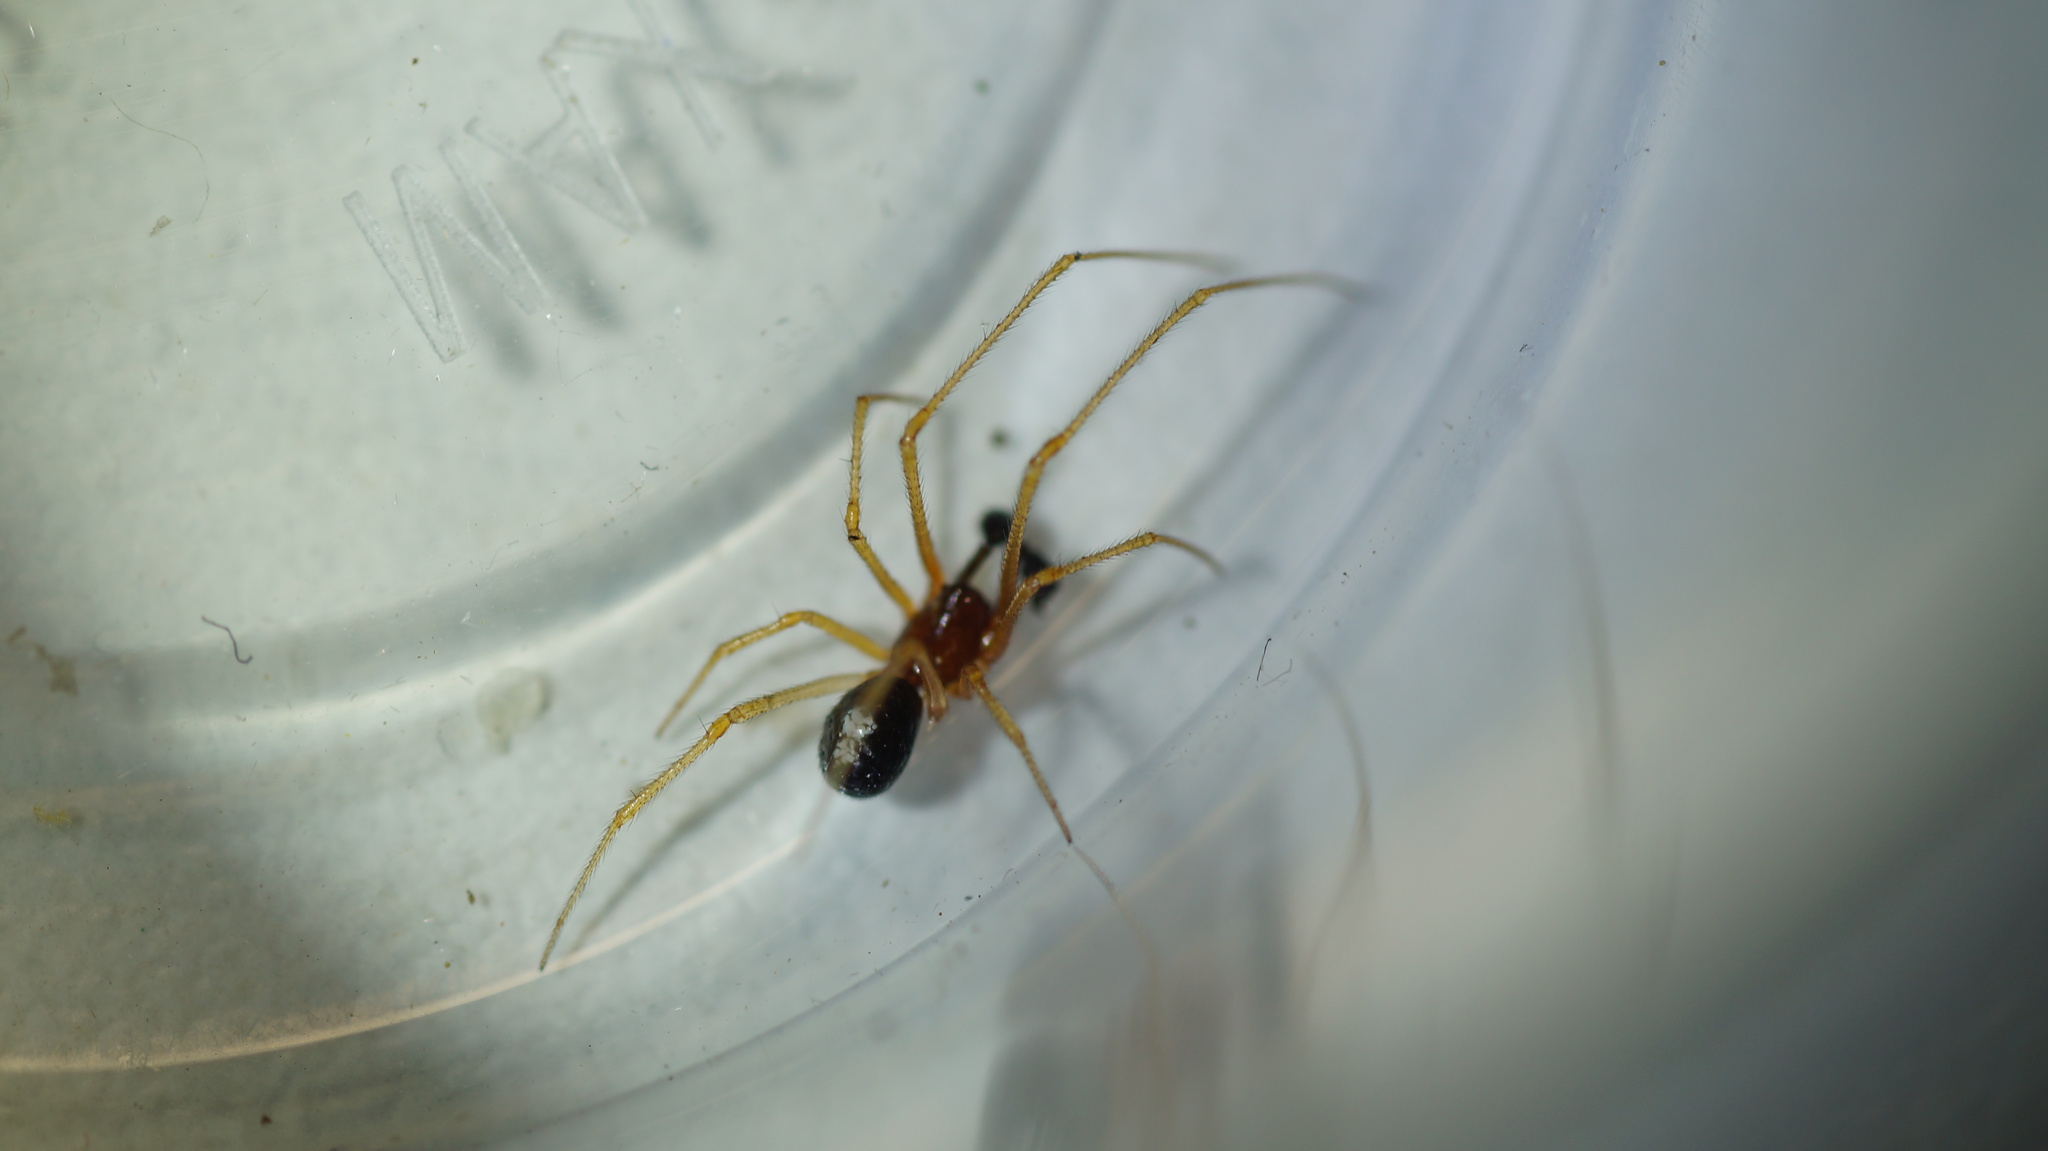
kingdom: Animalia
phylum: Arthropoda
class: Arachnida
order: Araneae
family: Theridiidae
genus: Neottiura
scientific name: Neottiura bimaculata
